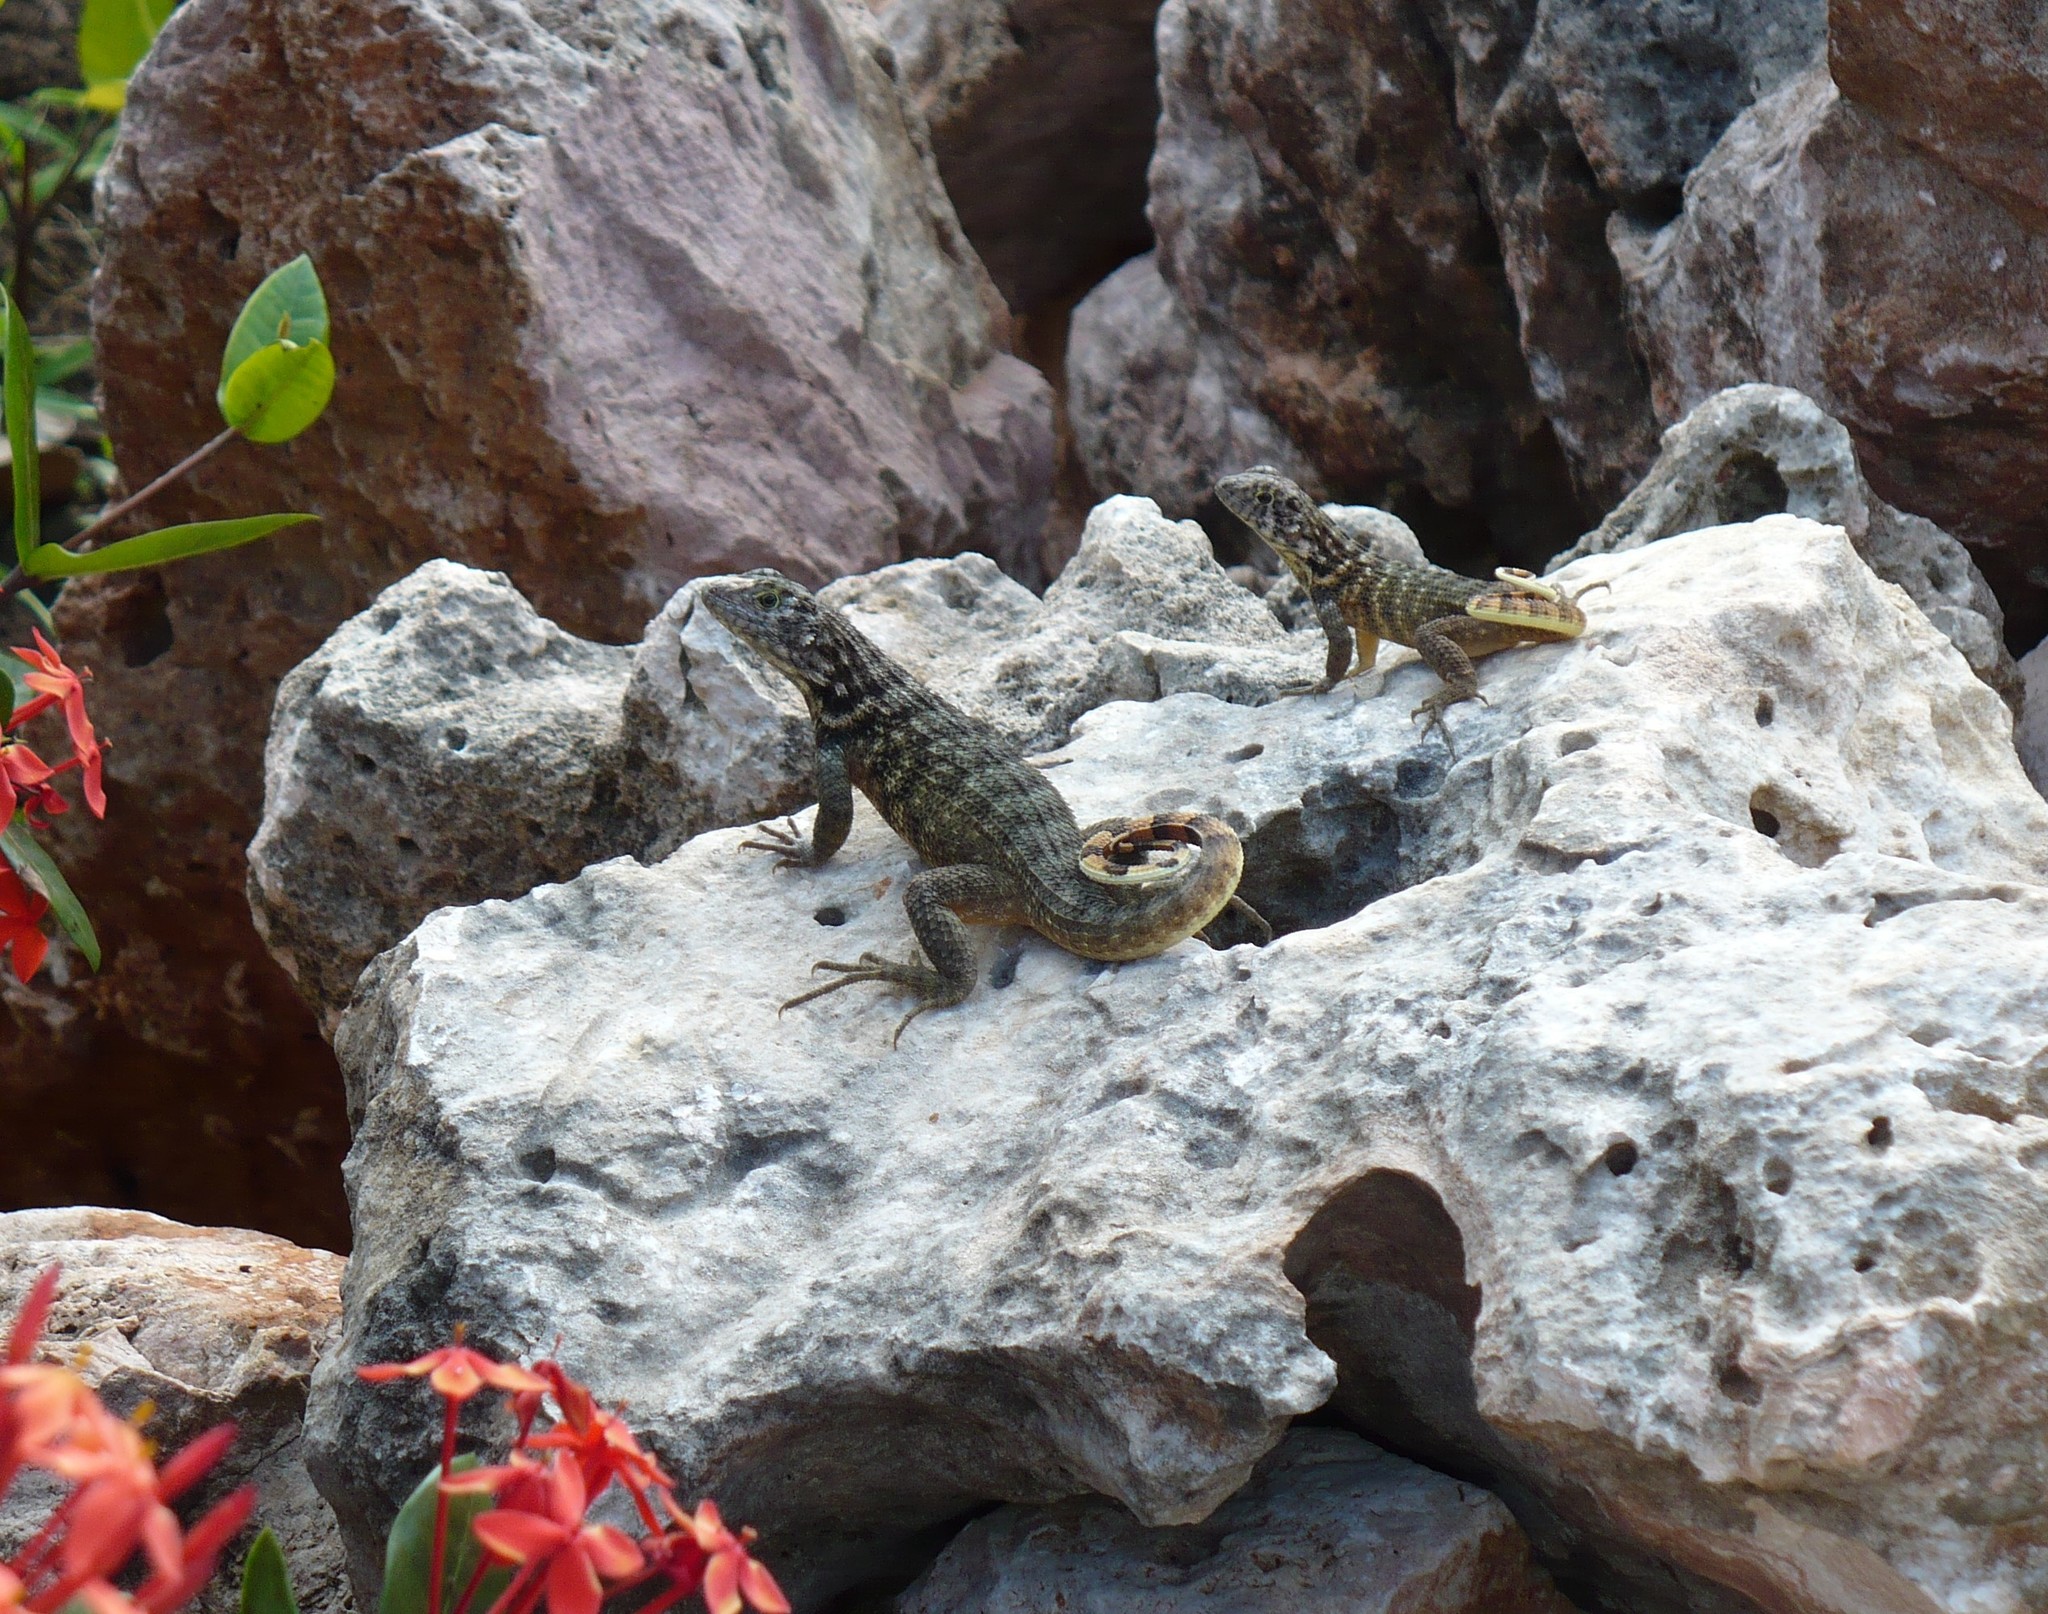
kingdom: Animalia
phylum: Chordata
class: Squamata
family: Leiocephalidae
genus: Leiocephalus
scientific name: Leiocephalus carinatus
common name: Northern curly-tailed lizard
